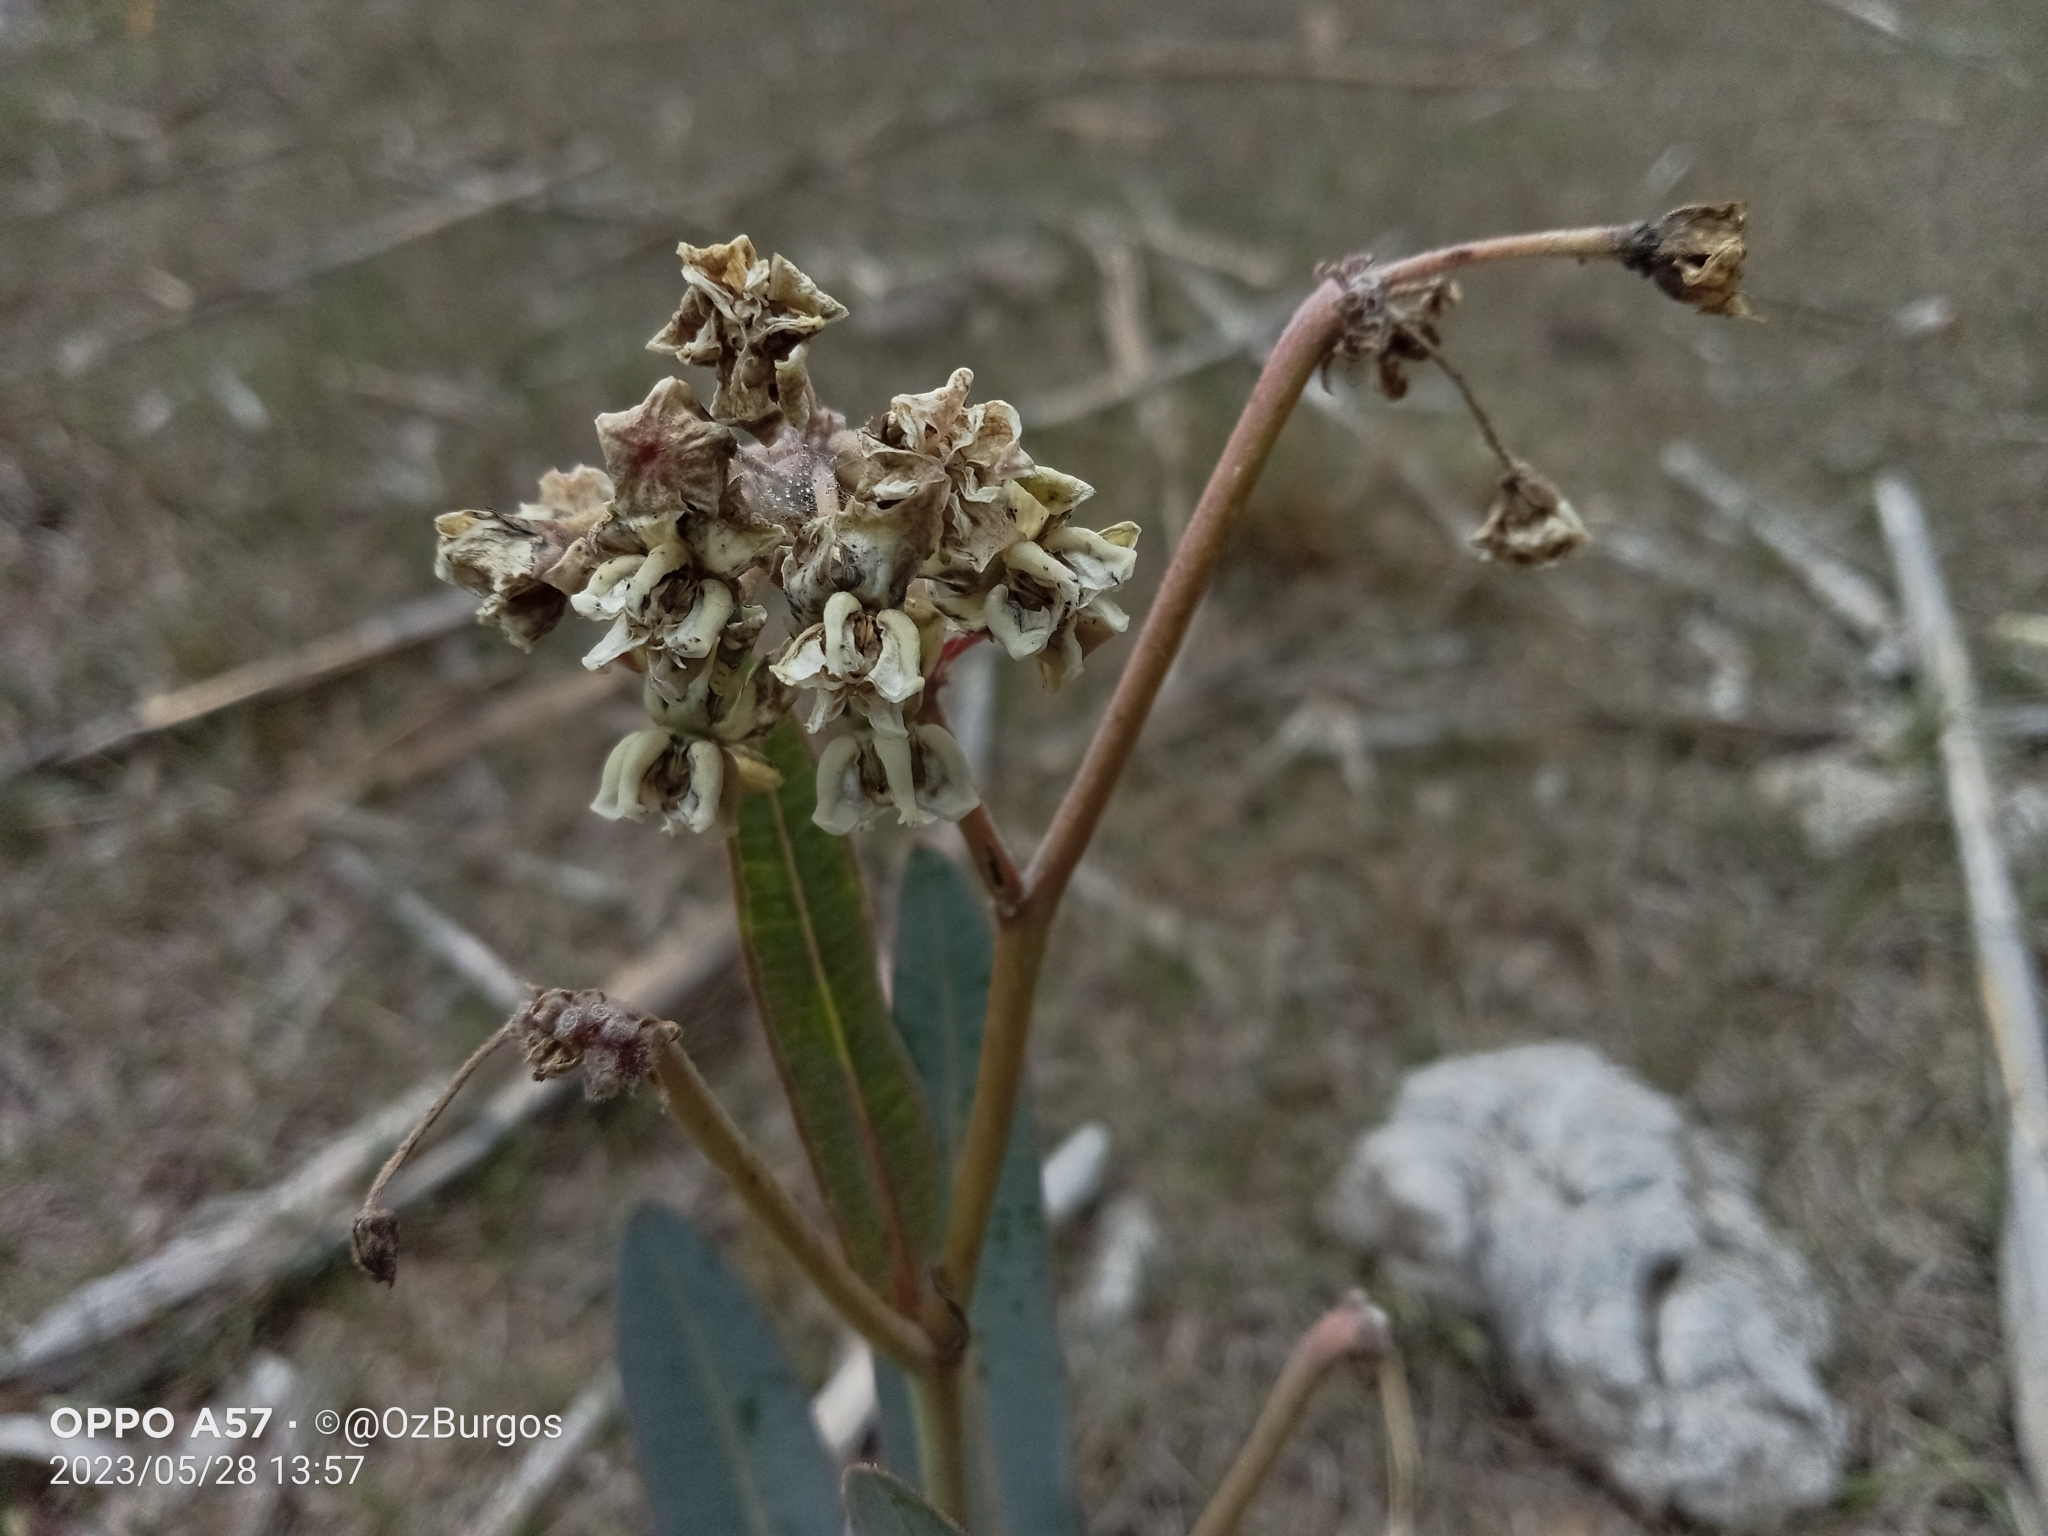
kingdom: Plantae
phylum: Tracheophyta
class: Magnoliopsida
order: Gentianales
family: Apocynaceae
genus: Asclepias
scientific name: Asclepias glaucescens
